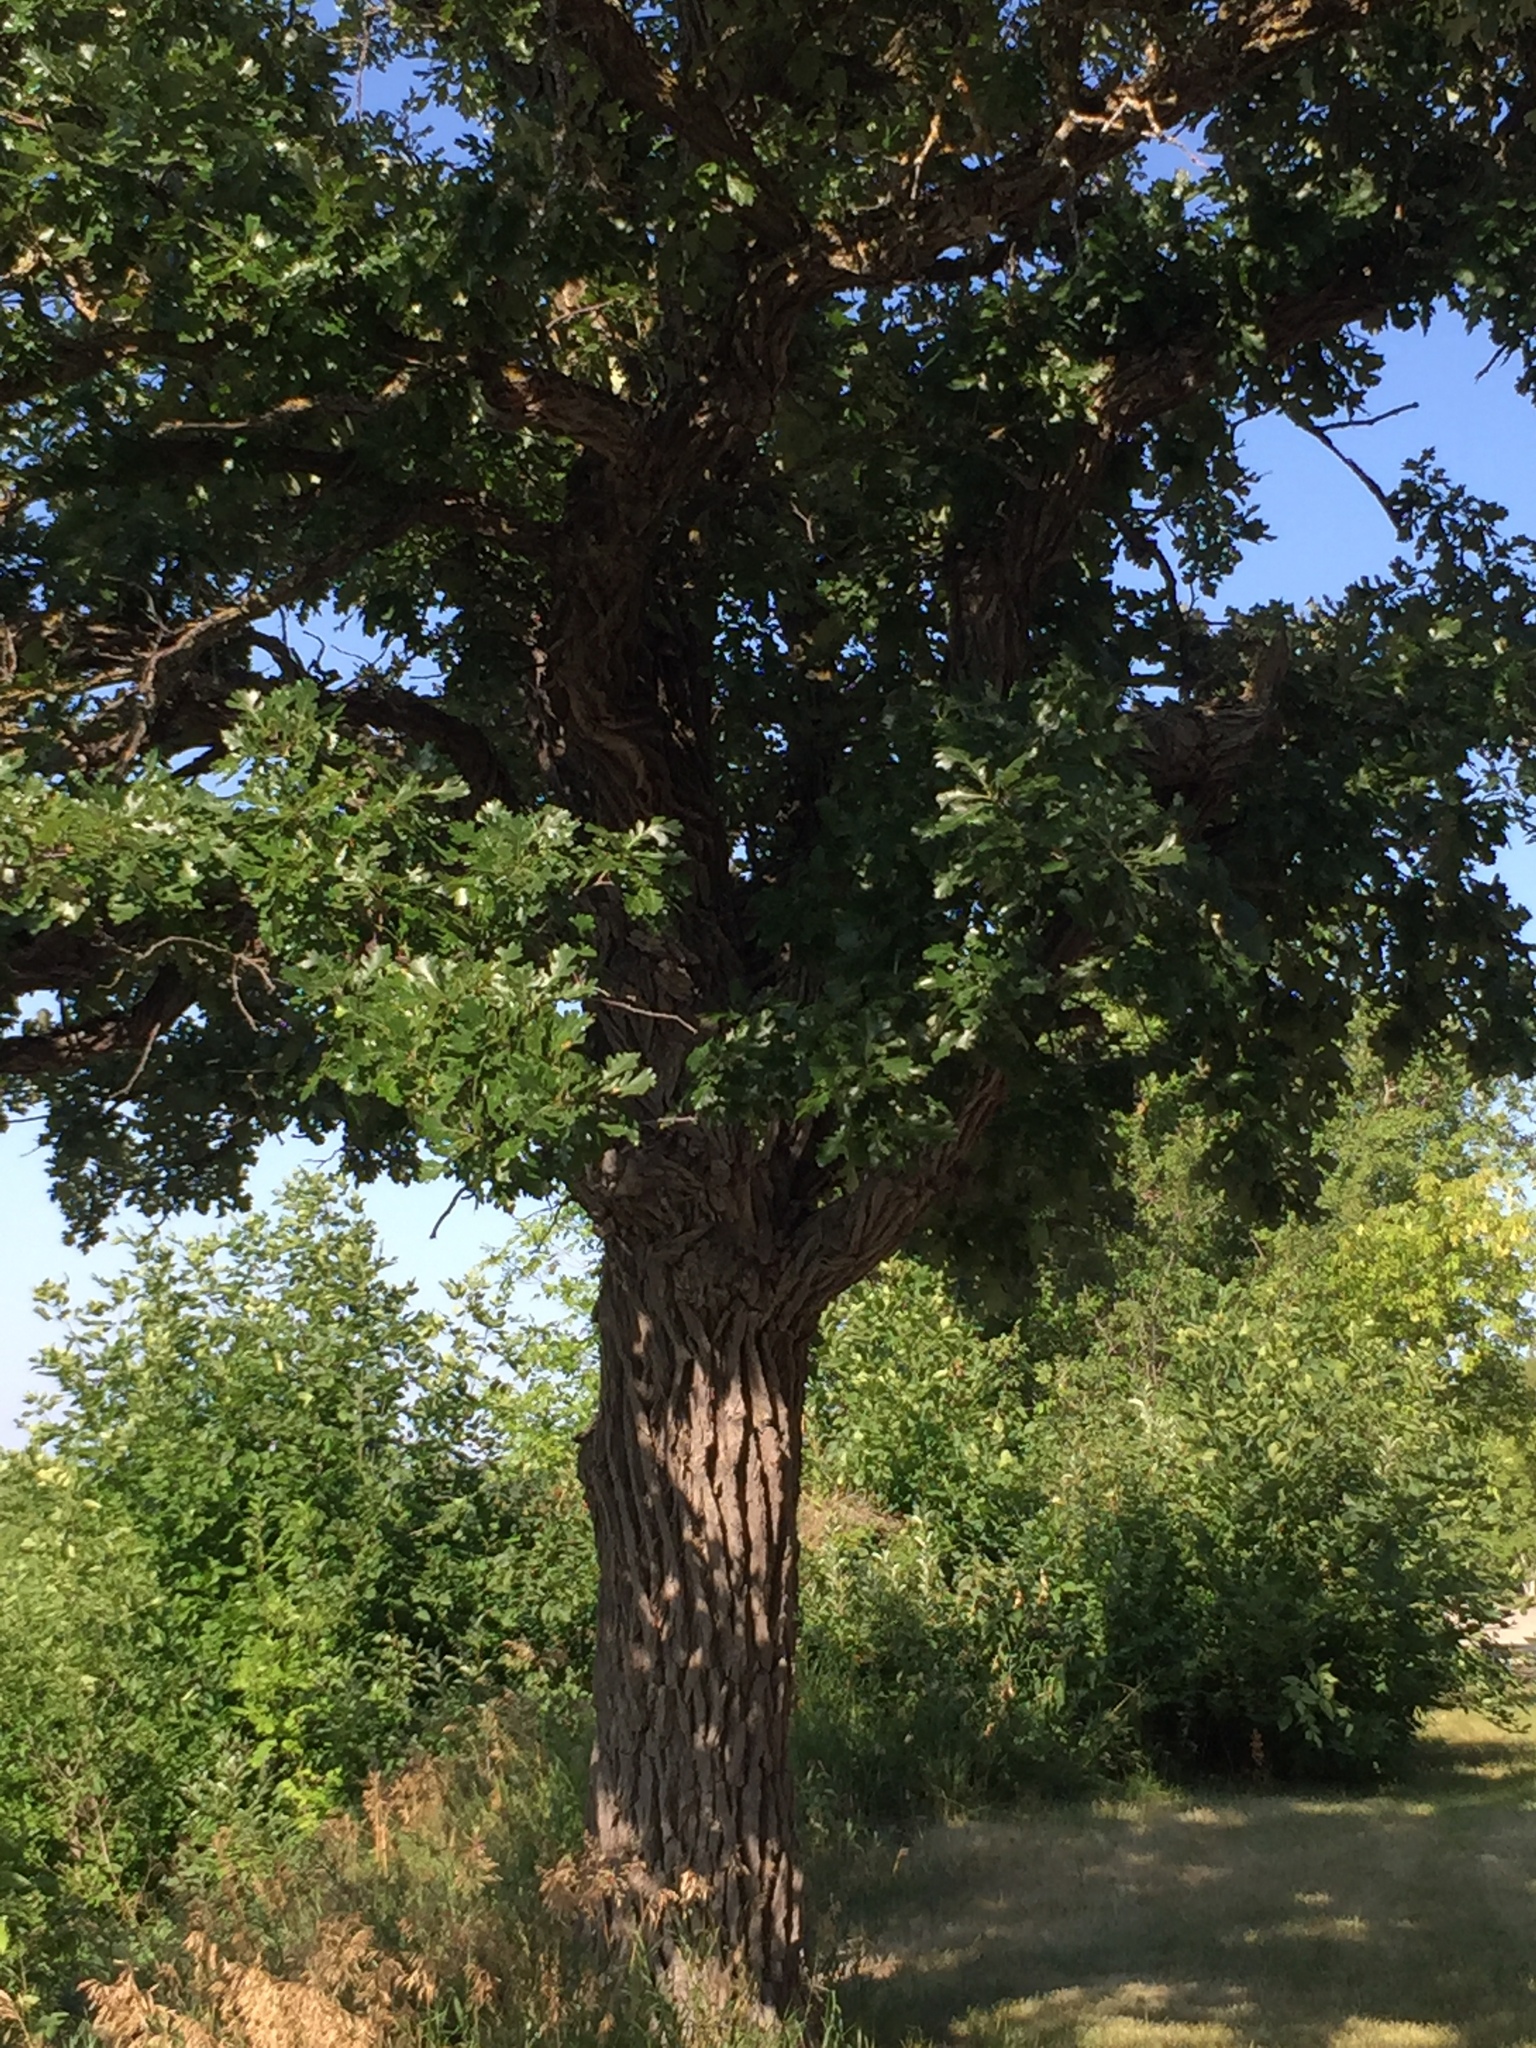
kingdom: Plantae
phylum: Tracheophyta
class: Magnoliopsida
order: Fagales
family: Fagaceae
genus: Quercus
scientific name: Quercus macrocarpa
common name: Bur oak
